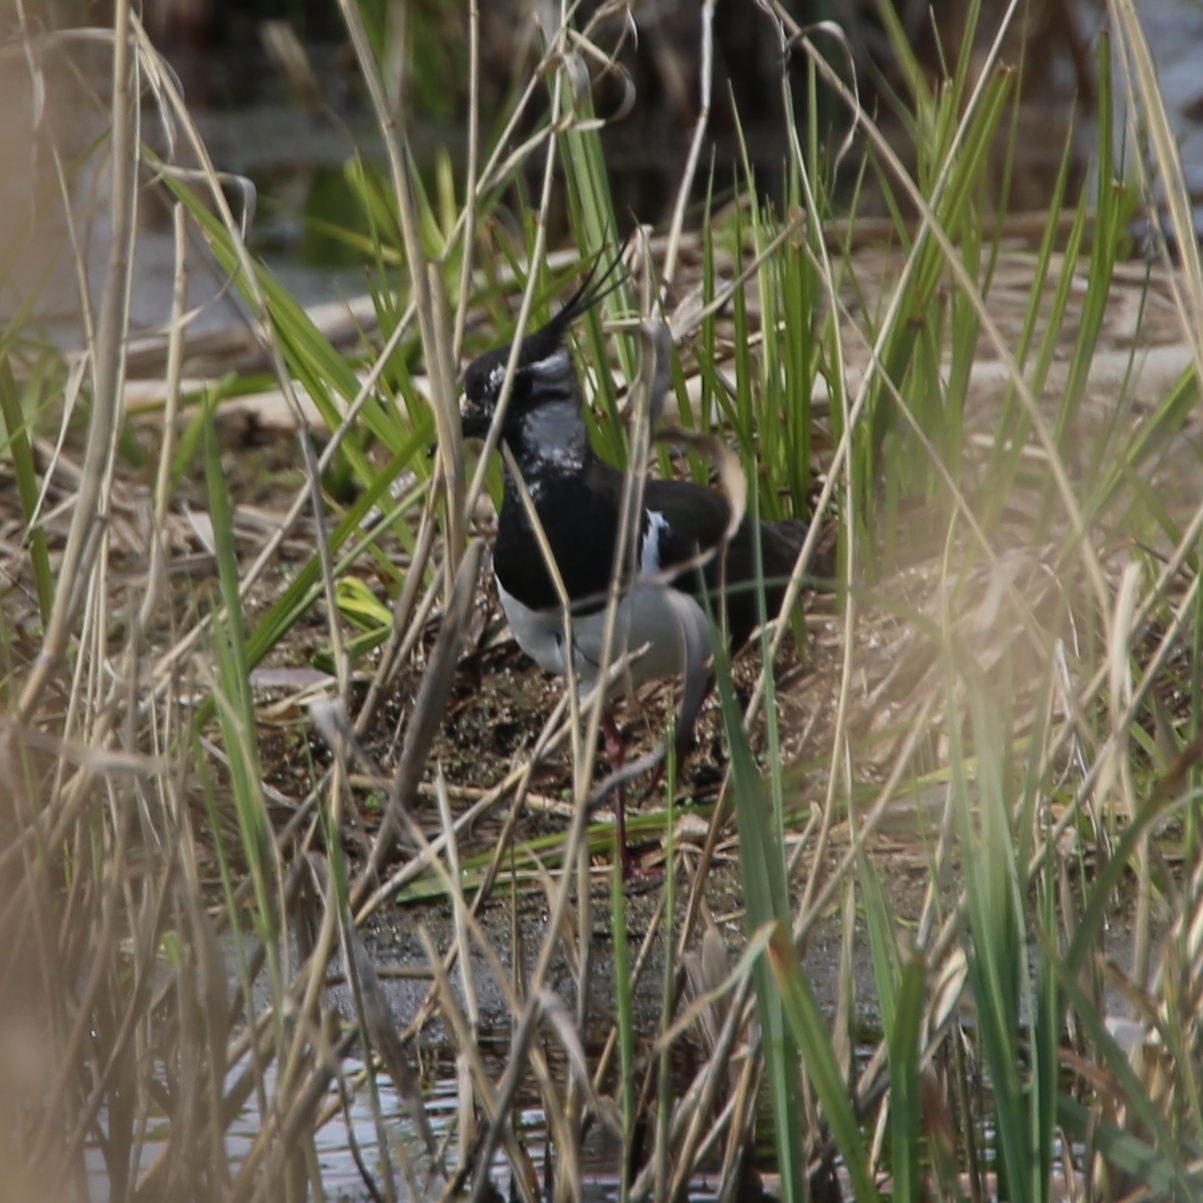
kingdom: Animalia
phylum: Chordata
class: Aves
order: Charadriiformes
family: Charadriidae
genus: Vanellus
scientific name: Vanellus vanellus
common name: Northern lapwing
